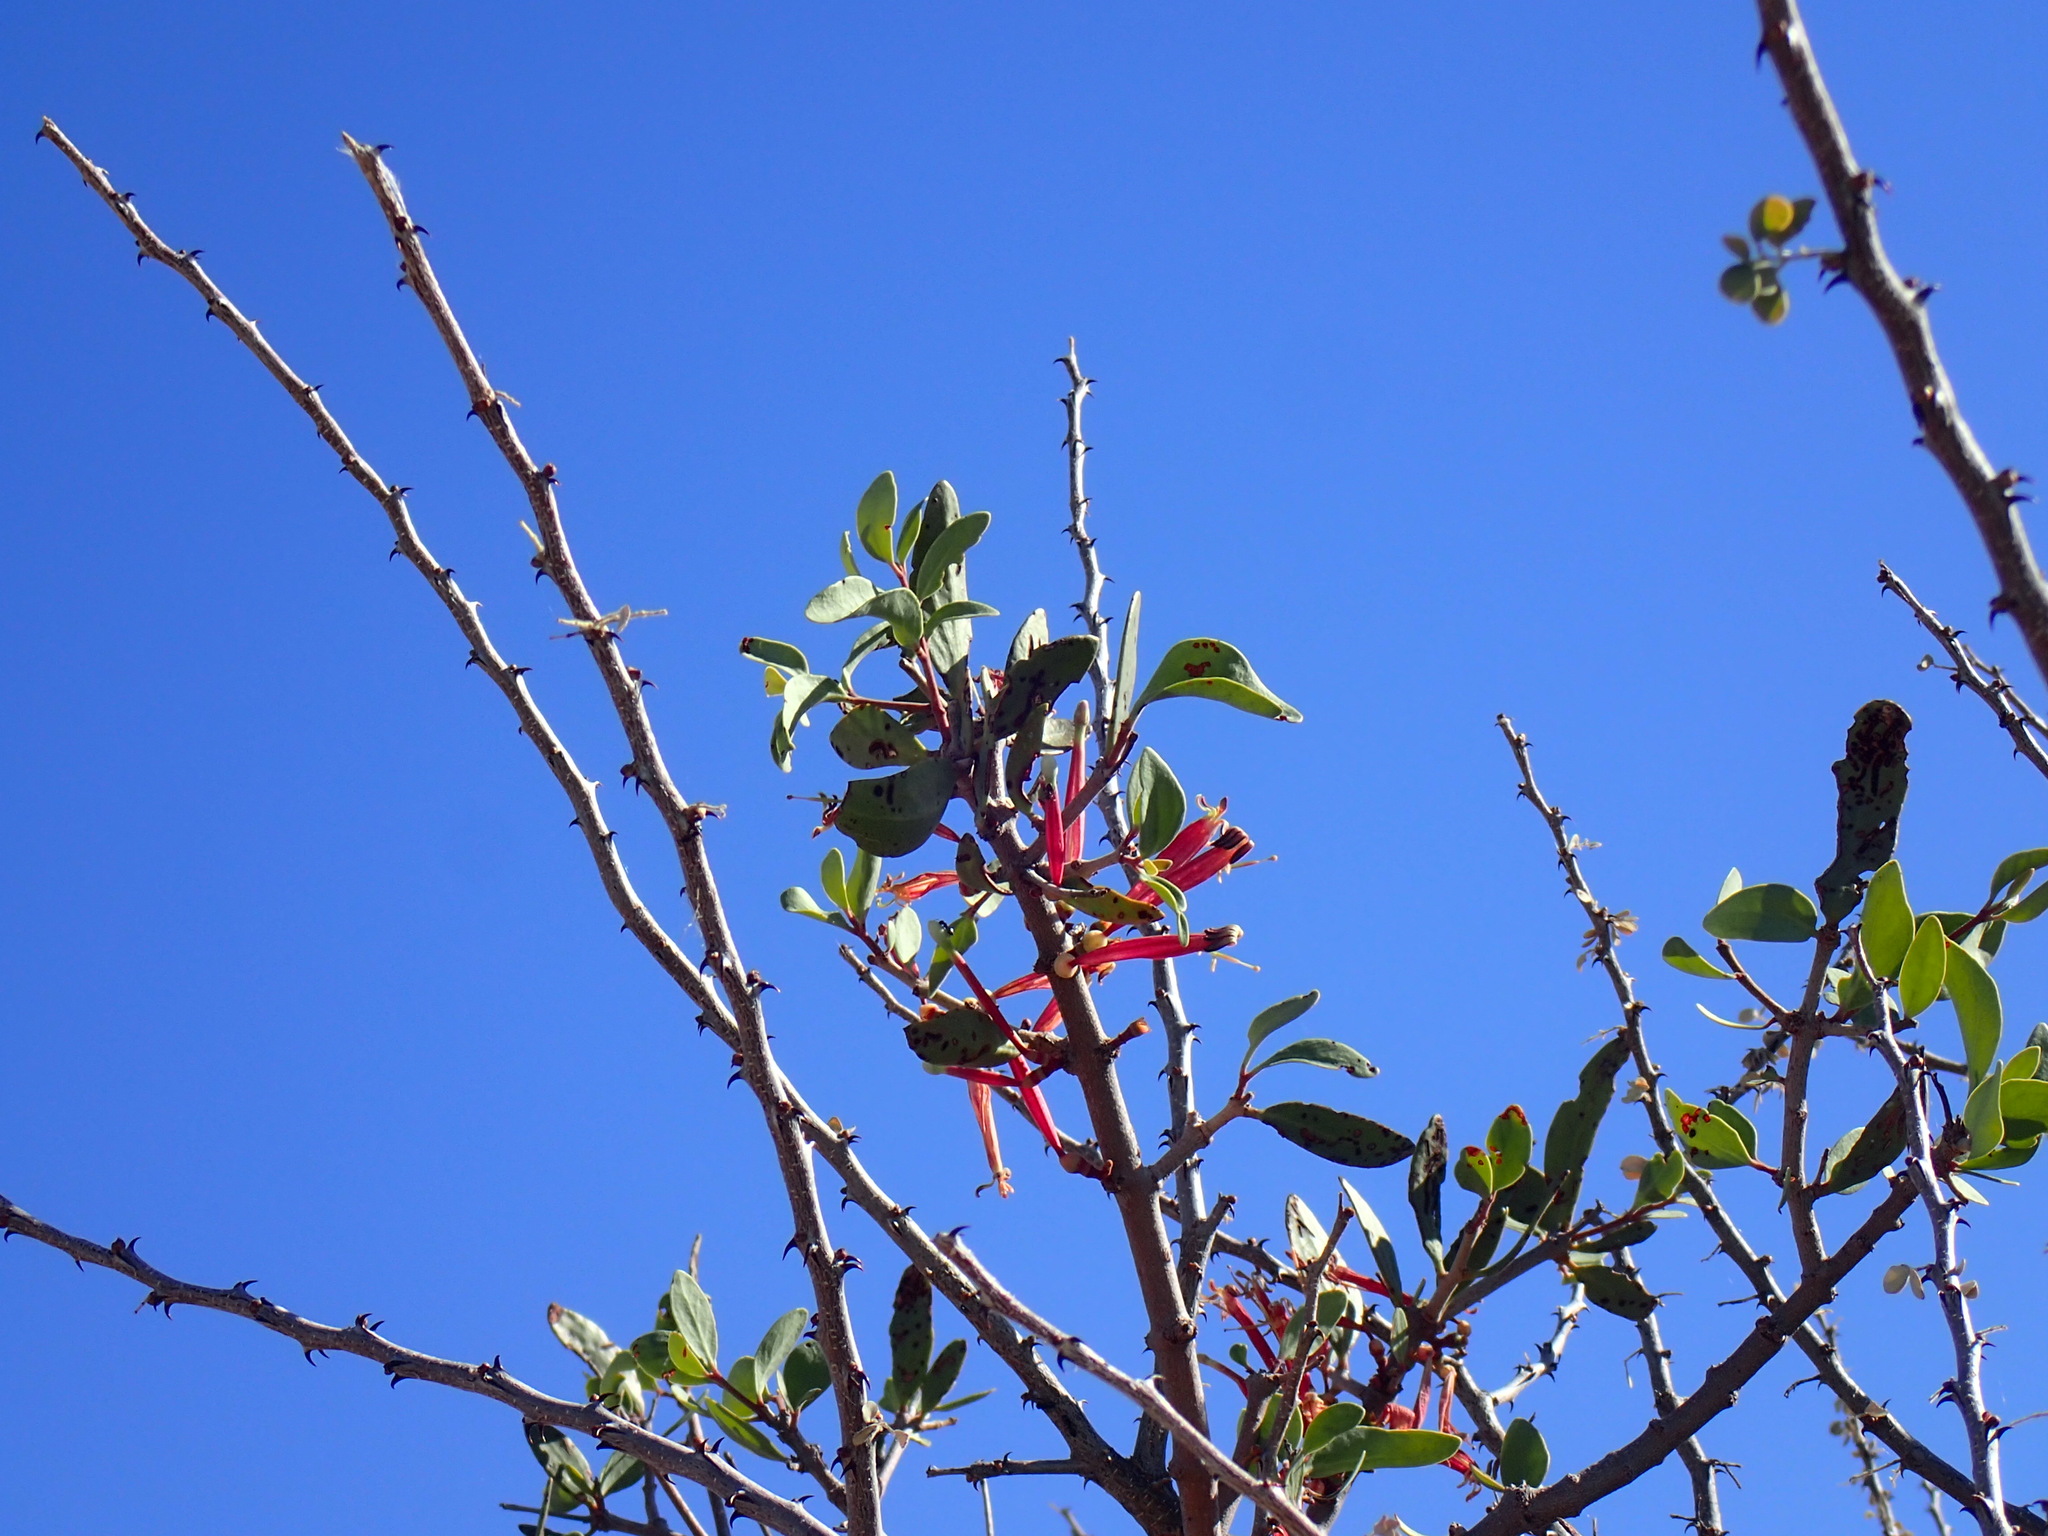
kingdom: Plantae
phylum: Tracheophyta
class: Magnoliopsida
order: Santalales
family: Loranthaceae
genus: Tapinanthus
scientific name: Tapinanthus oleifolius
